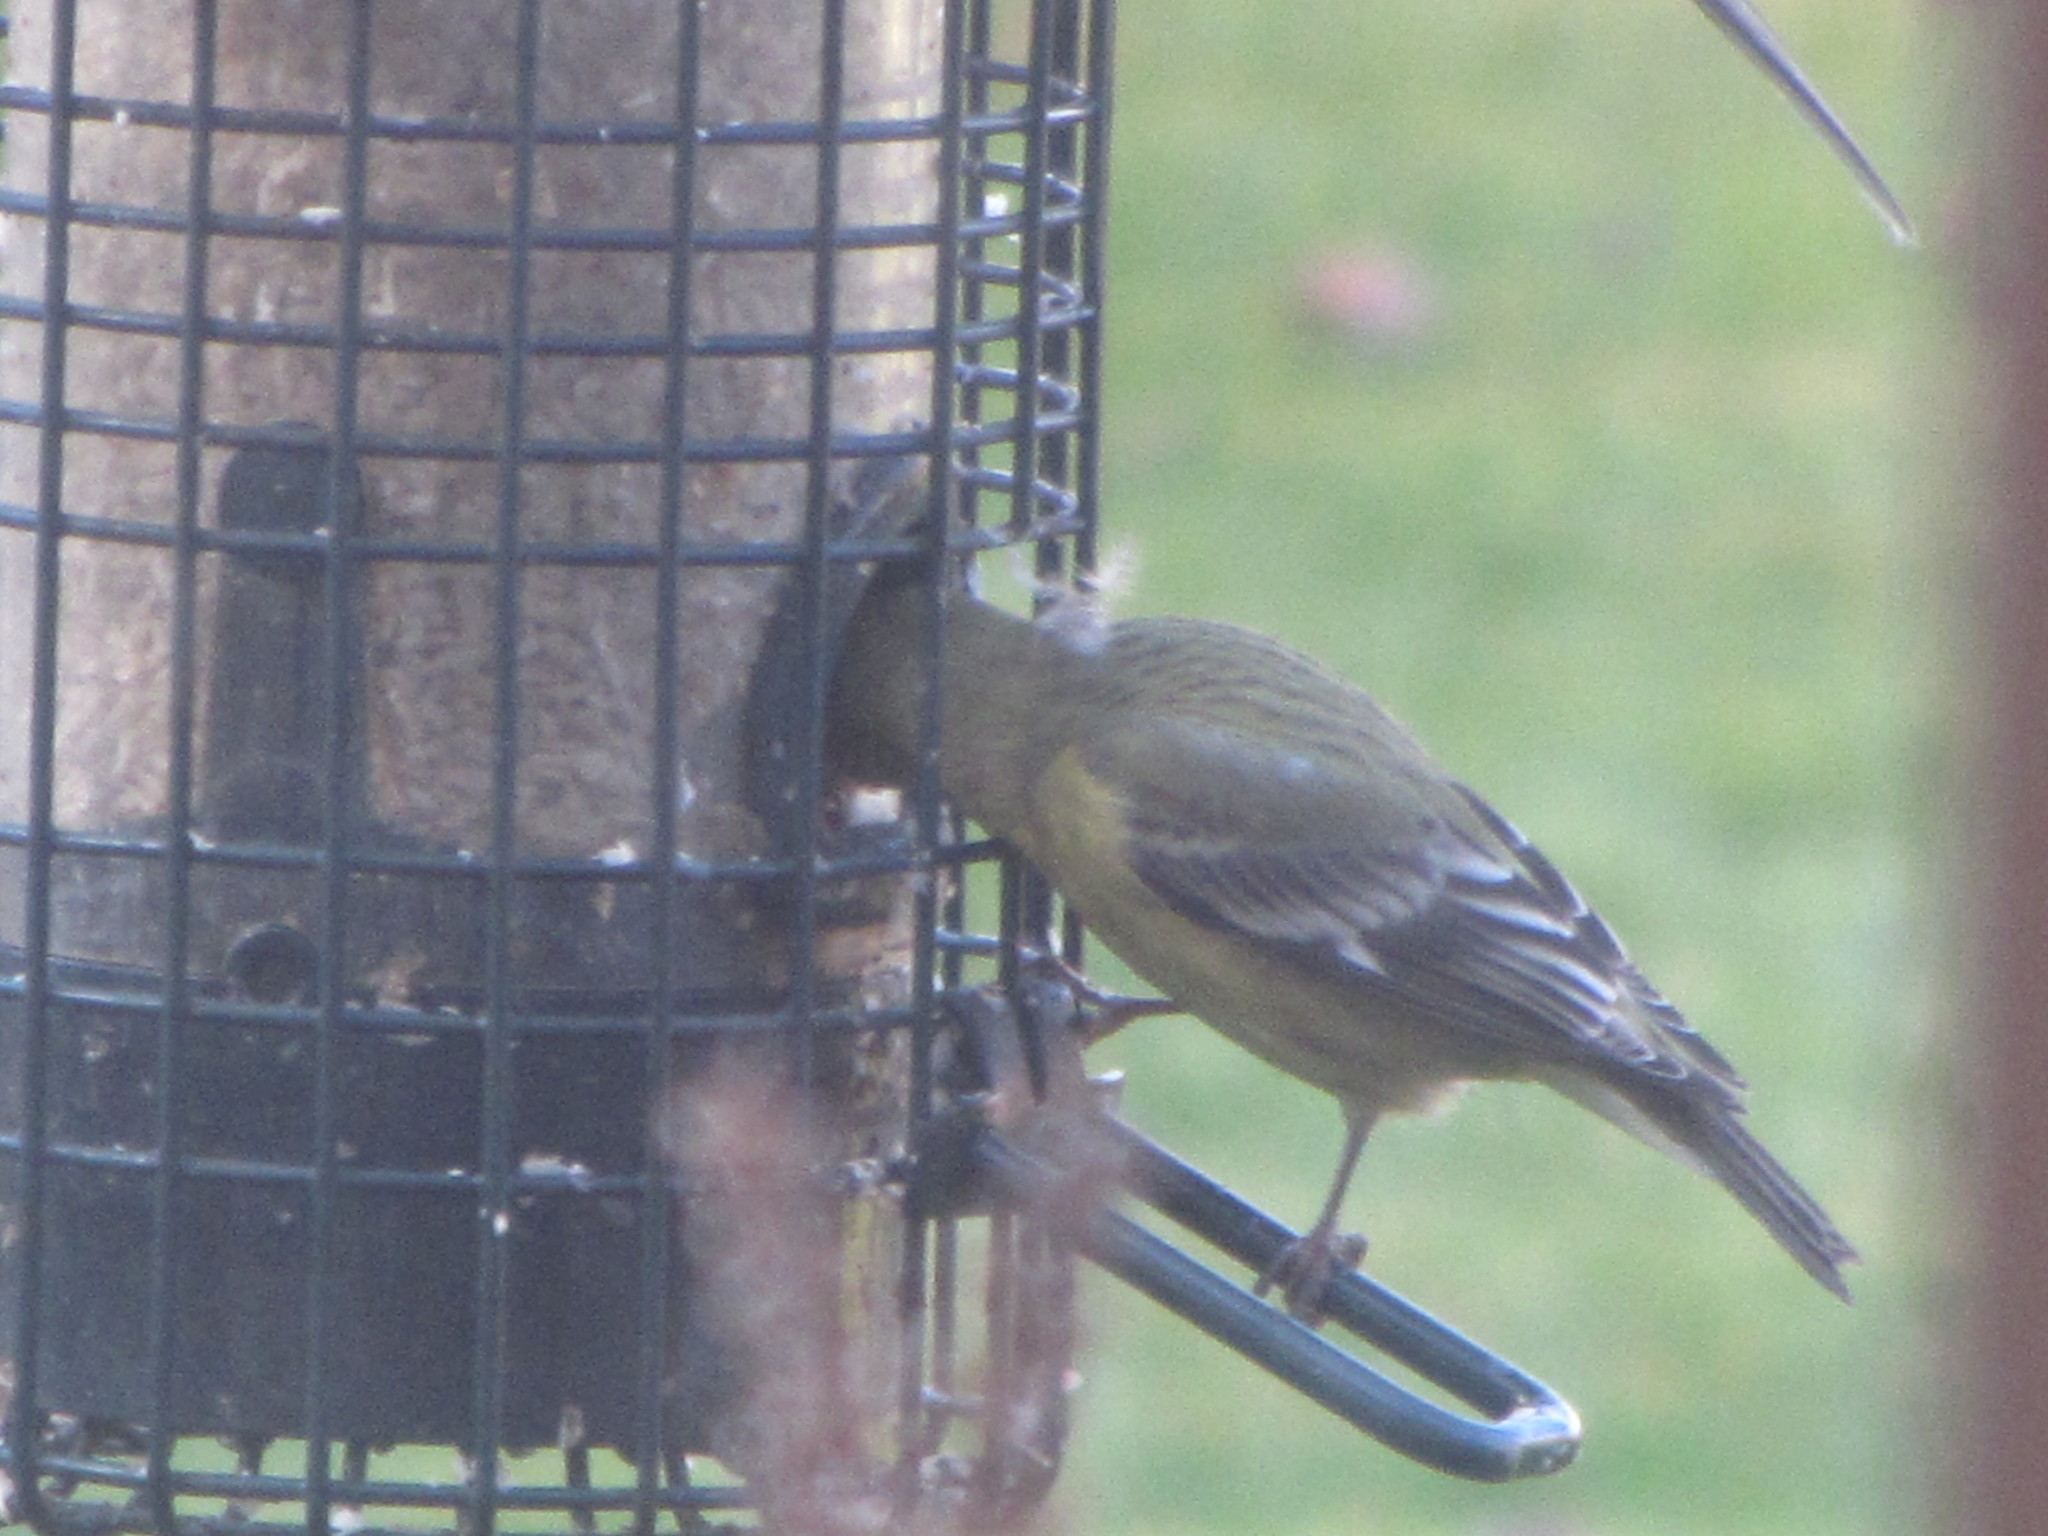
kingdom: Animalia
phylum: Chordata
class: Aves
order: Passeriformes
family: Fringillidae
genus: Spinus
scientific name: Spinus psaltria
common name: Lesser goldfinch
